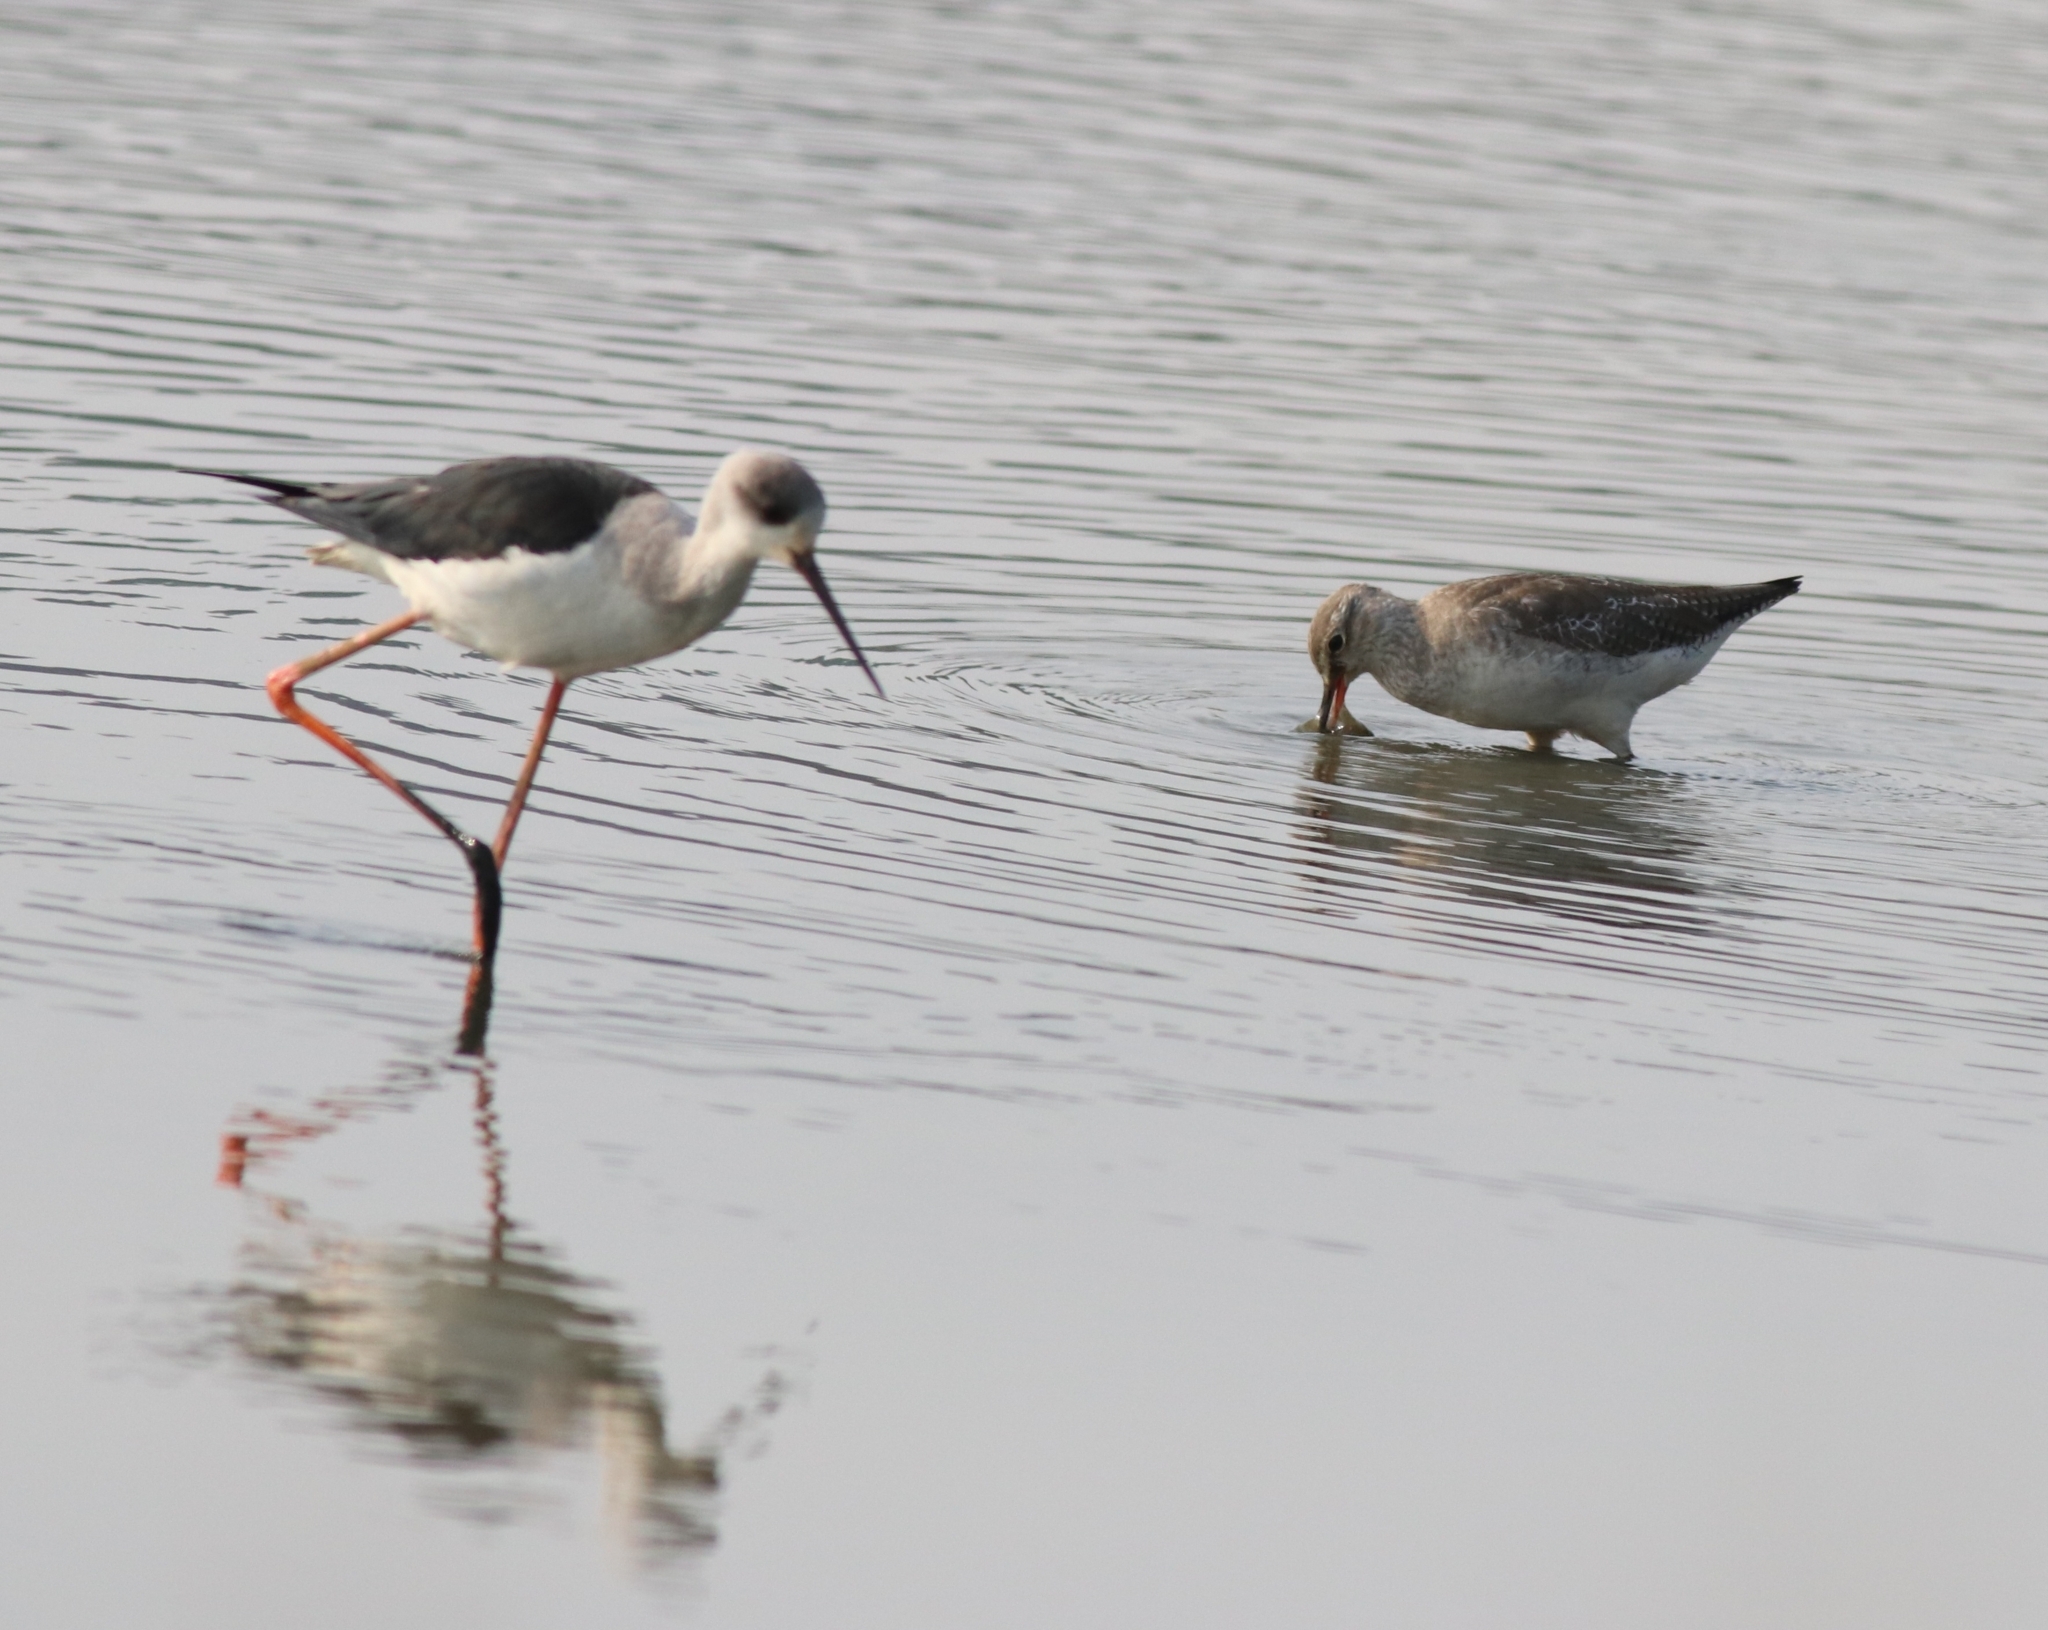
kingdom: Animalia
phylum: Chordata
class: Aves
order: Charadriiformes
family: Recurvirostridae
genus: Himantopus
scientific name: Himantopus himantopus
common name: Black-winged stilt
